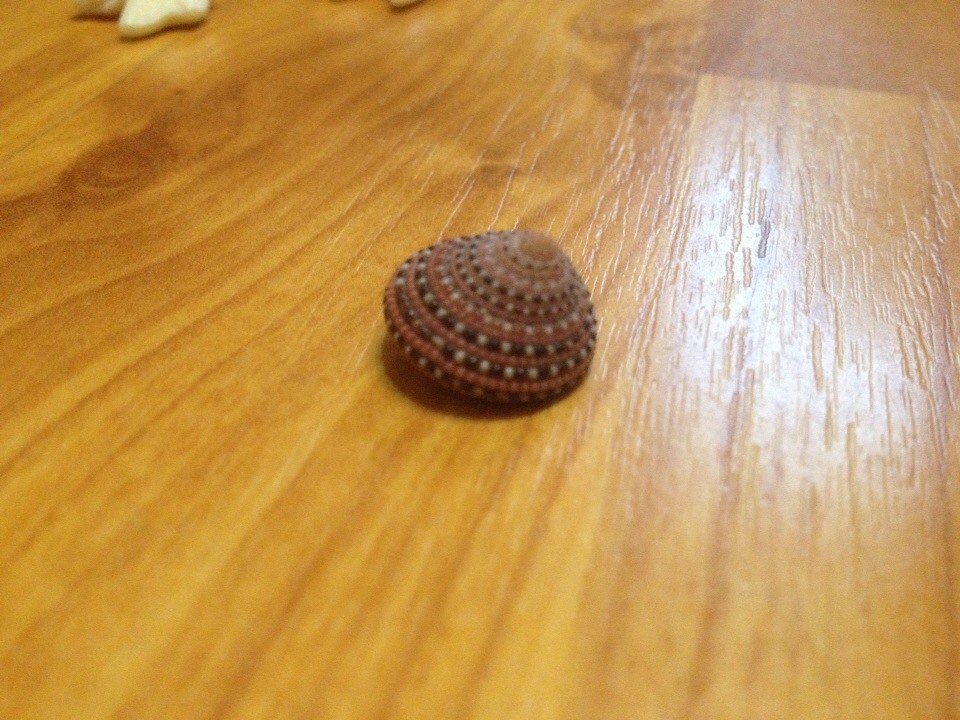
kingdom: Animalia
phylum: Mollusca
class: Gastropoda
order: Trochida
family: Trochidae
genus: Clanculus
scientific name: Clanculus pharaonius
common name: Strawberry top
